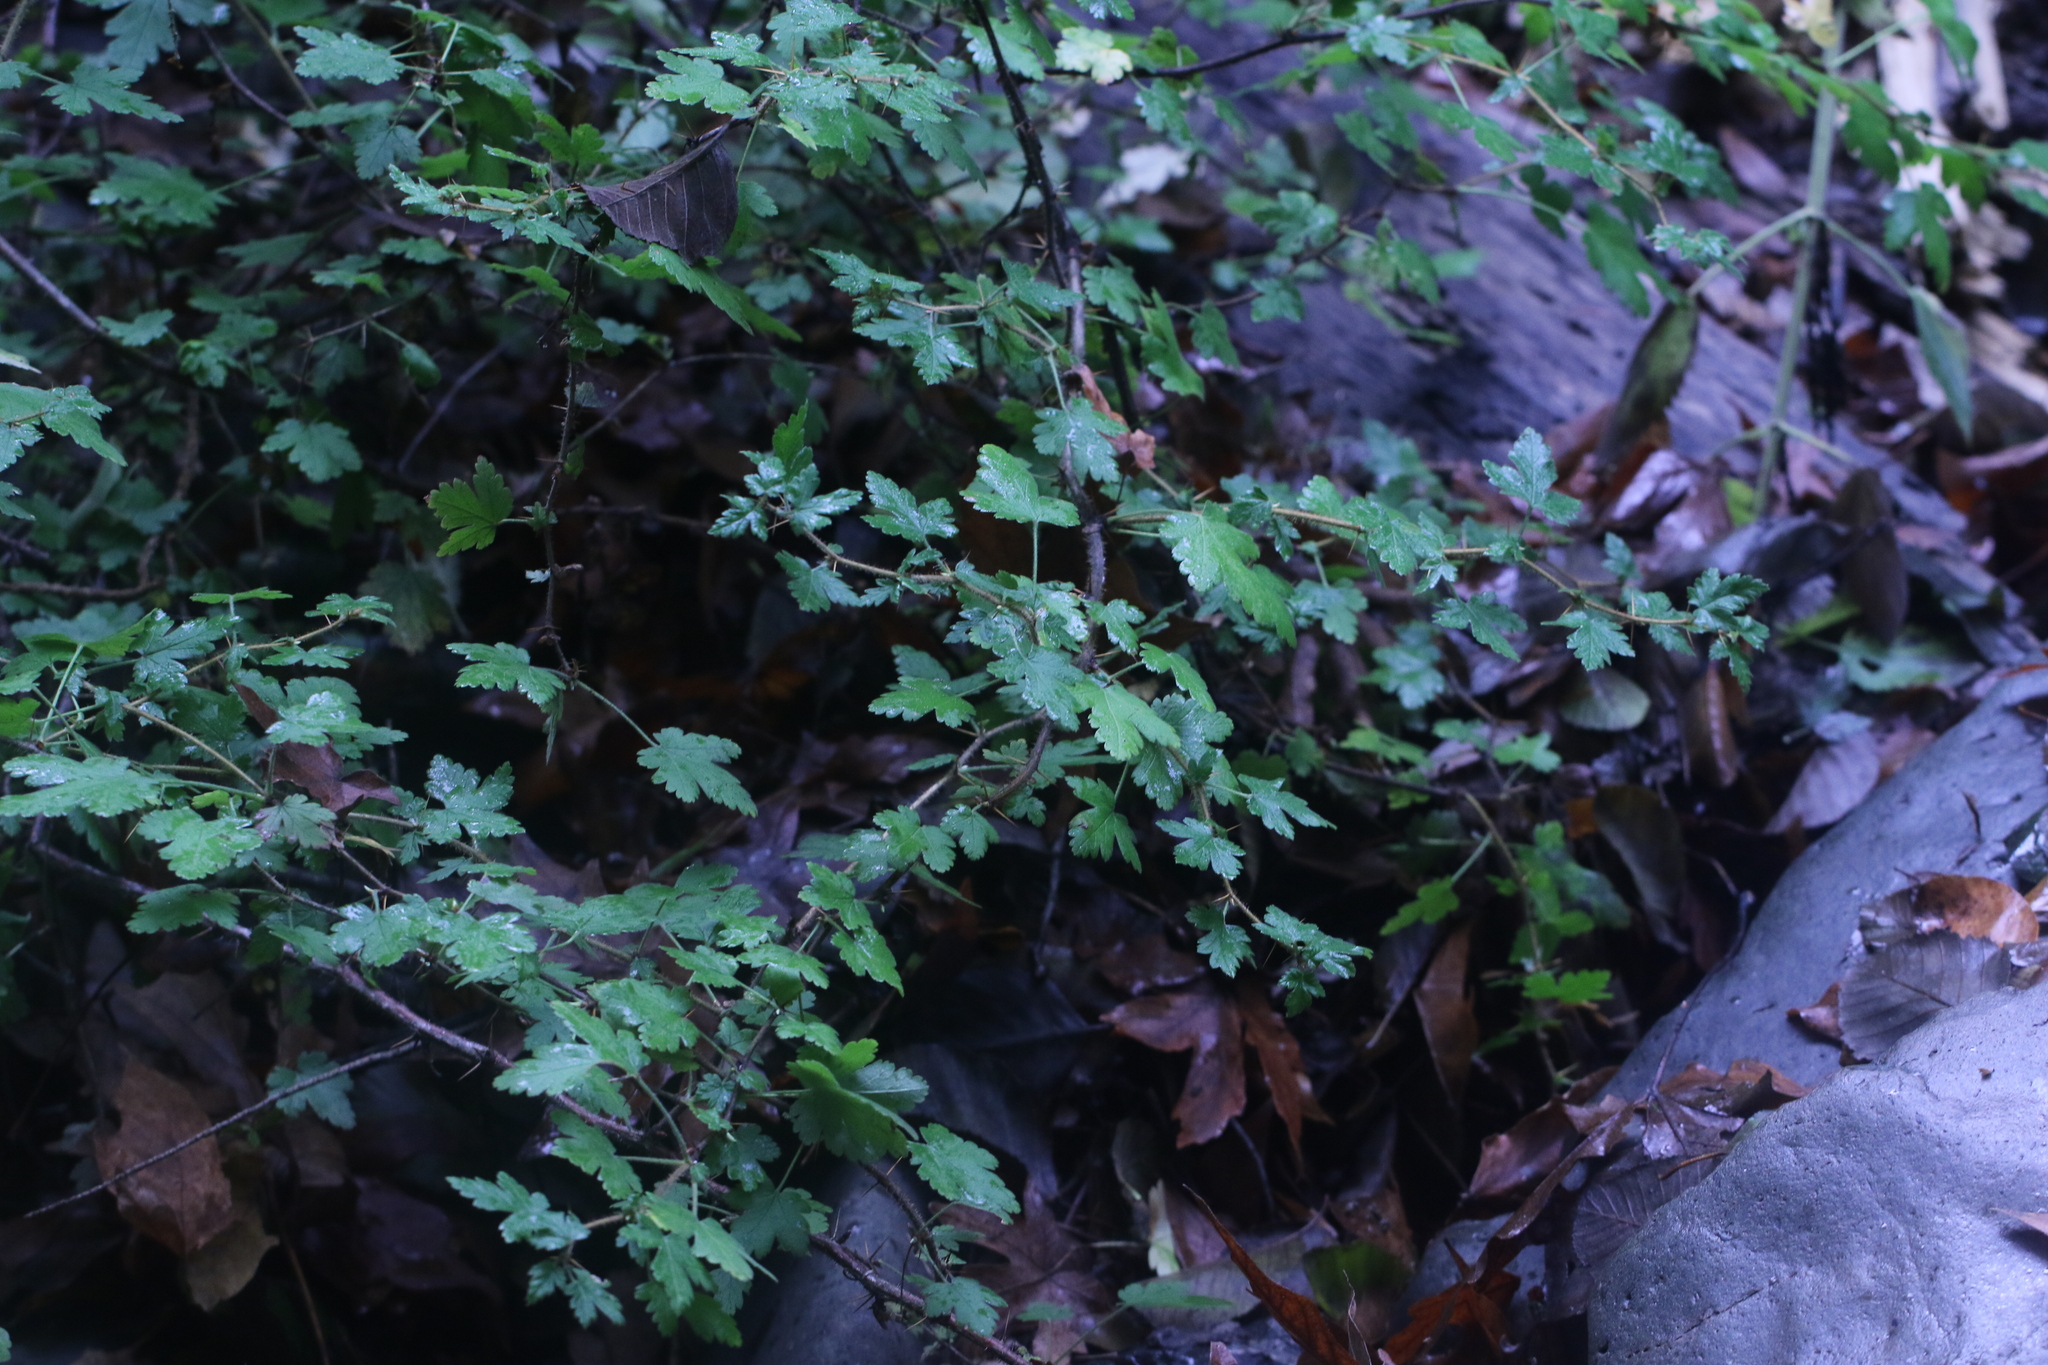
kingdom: Plantae
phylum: Tracheophyta
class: Magnoliopsida
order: Saxifragales
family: Grossulariaceae
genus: Ribes
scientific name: Ribes menziesii
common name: Canyon gooseberry
